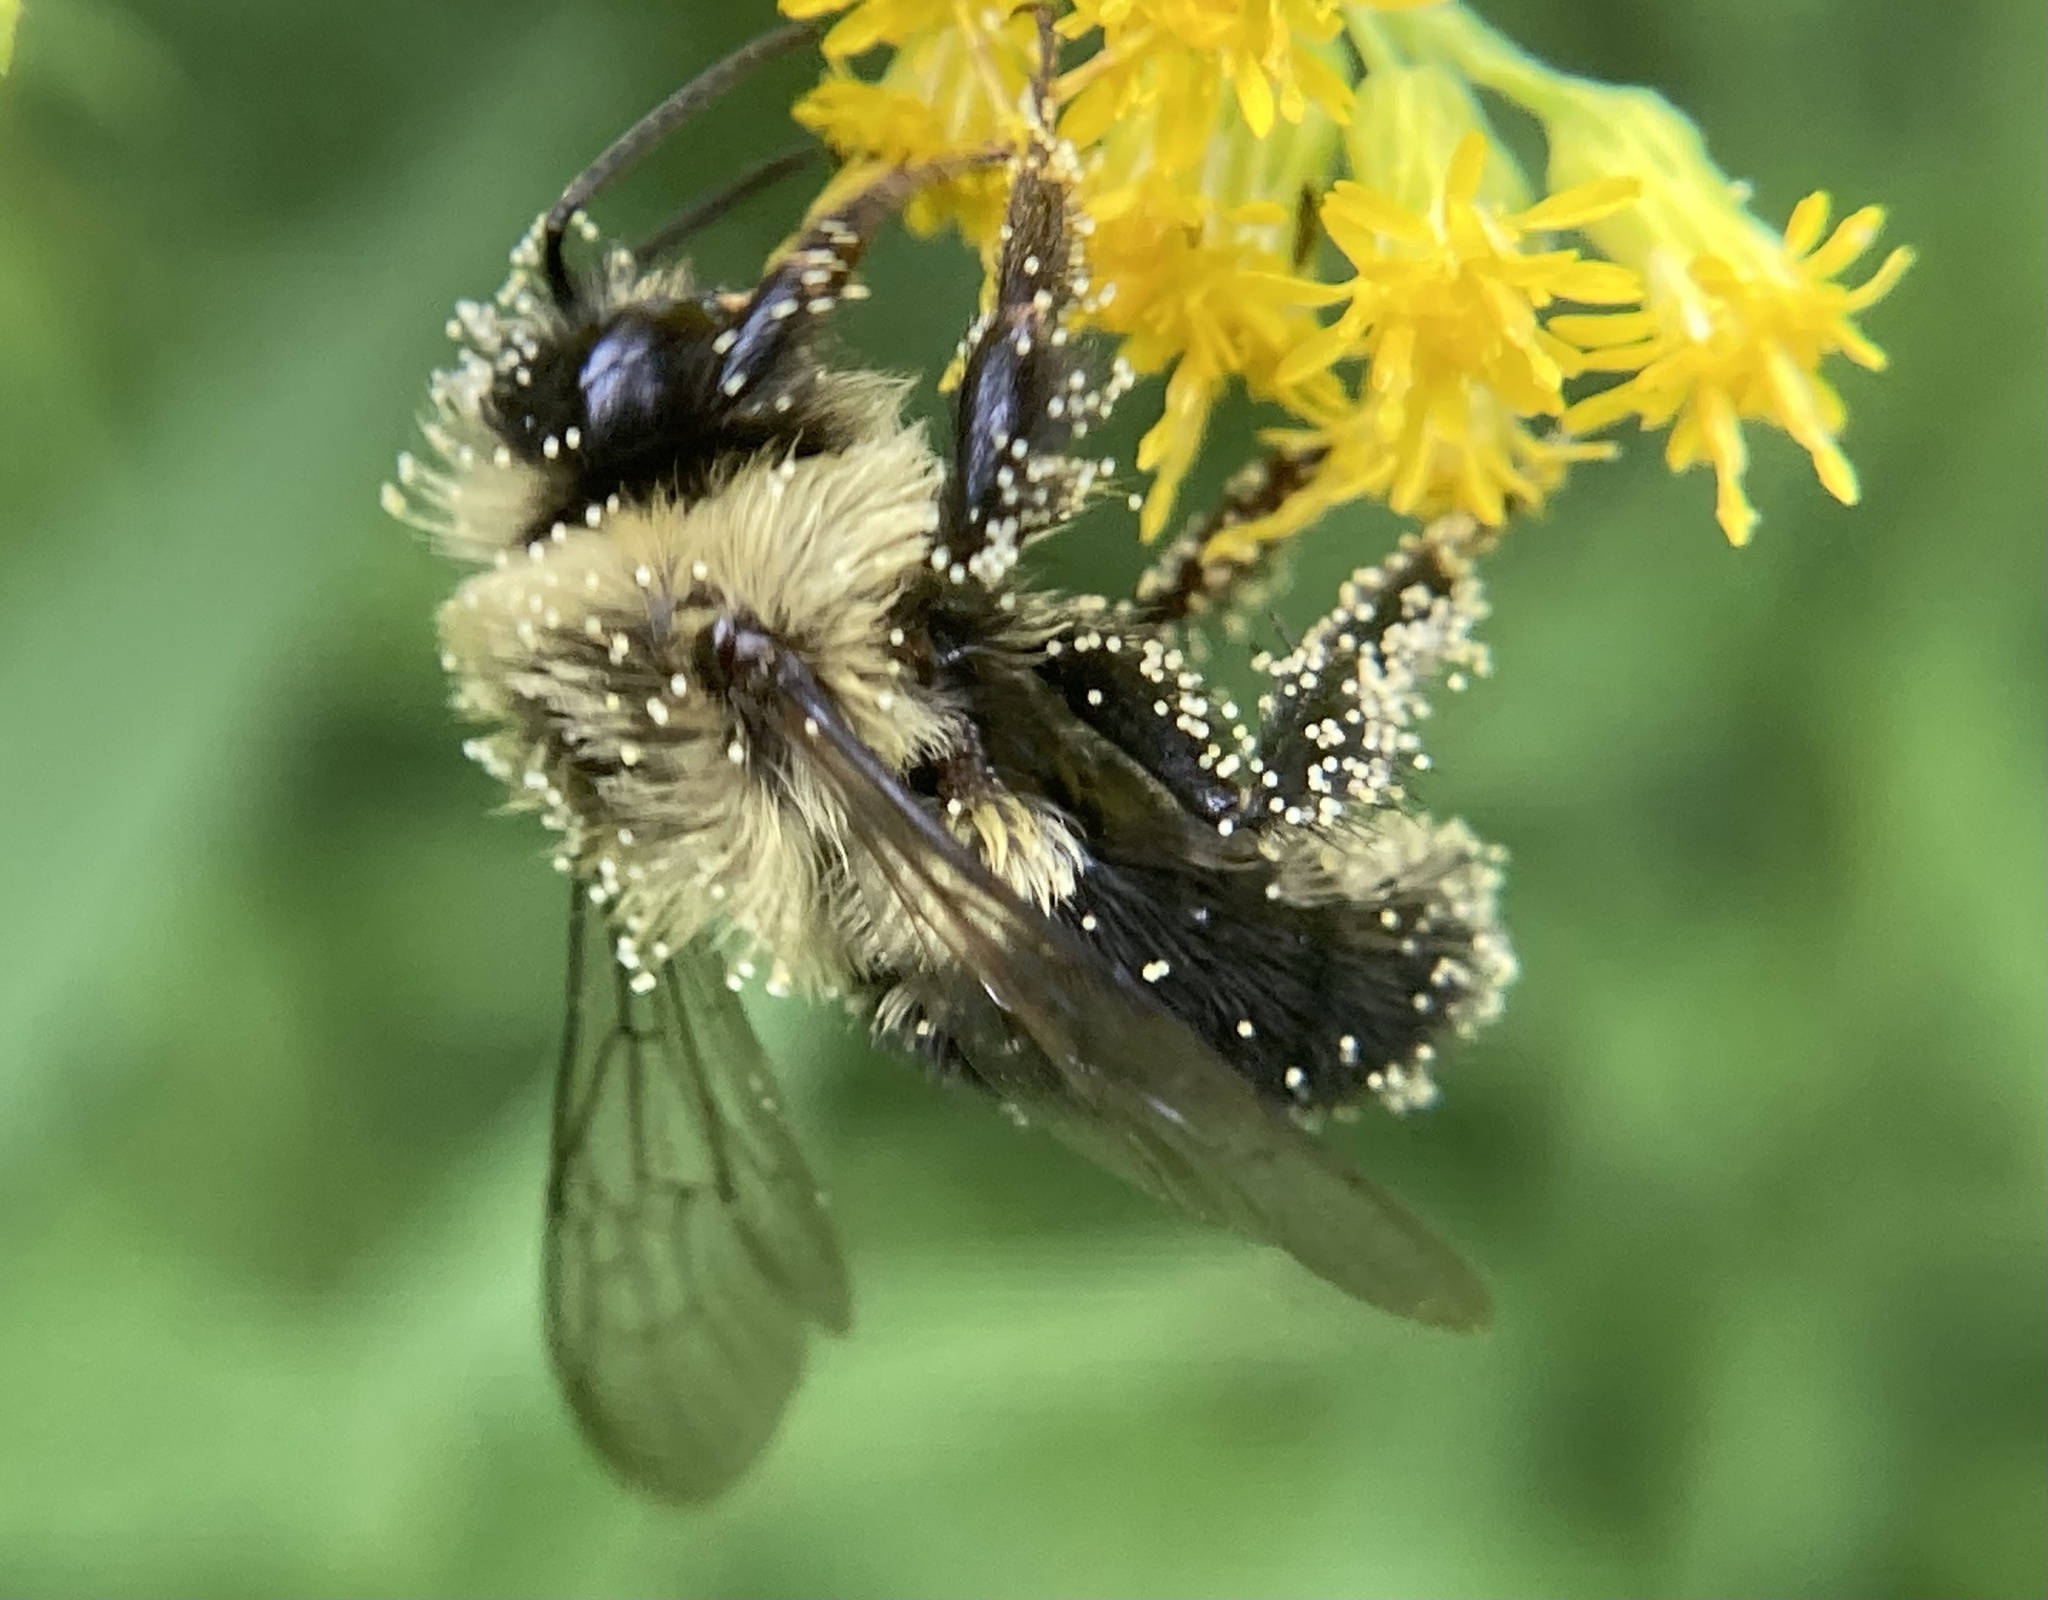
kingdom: Animalia
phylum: Arthropoda
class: Insecta
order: Hymenoptera
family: Apidae
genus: Bombus
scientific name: Bombus impatiens
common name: Common eastern bumble bee
